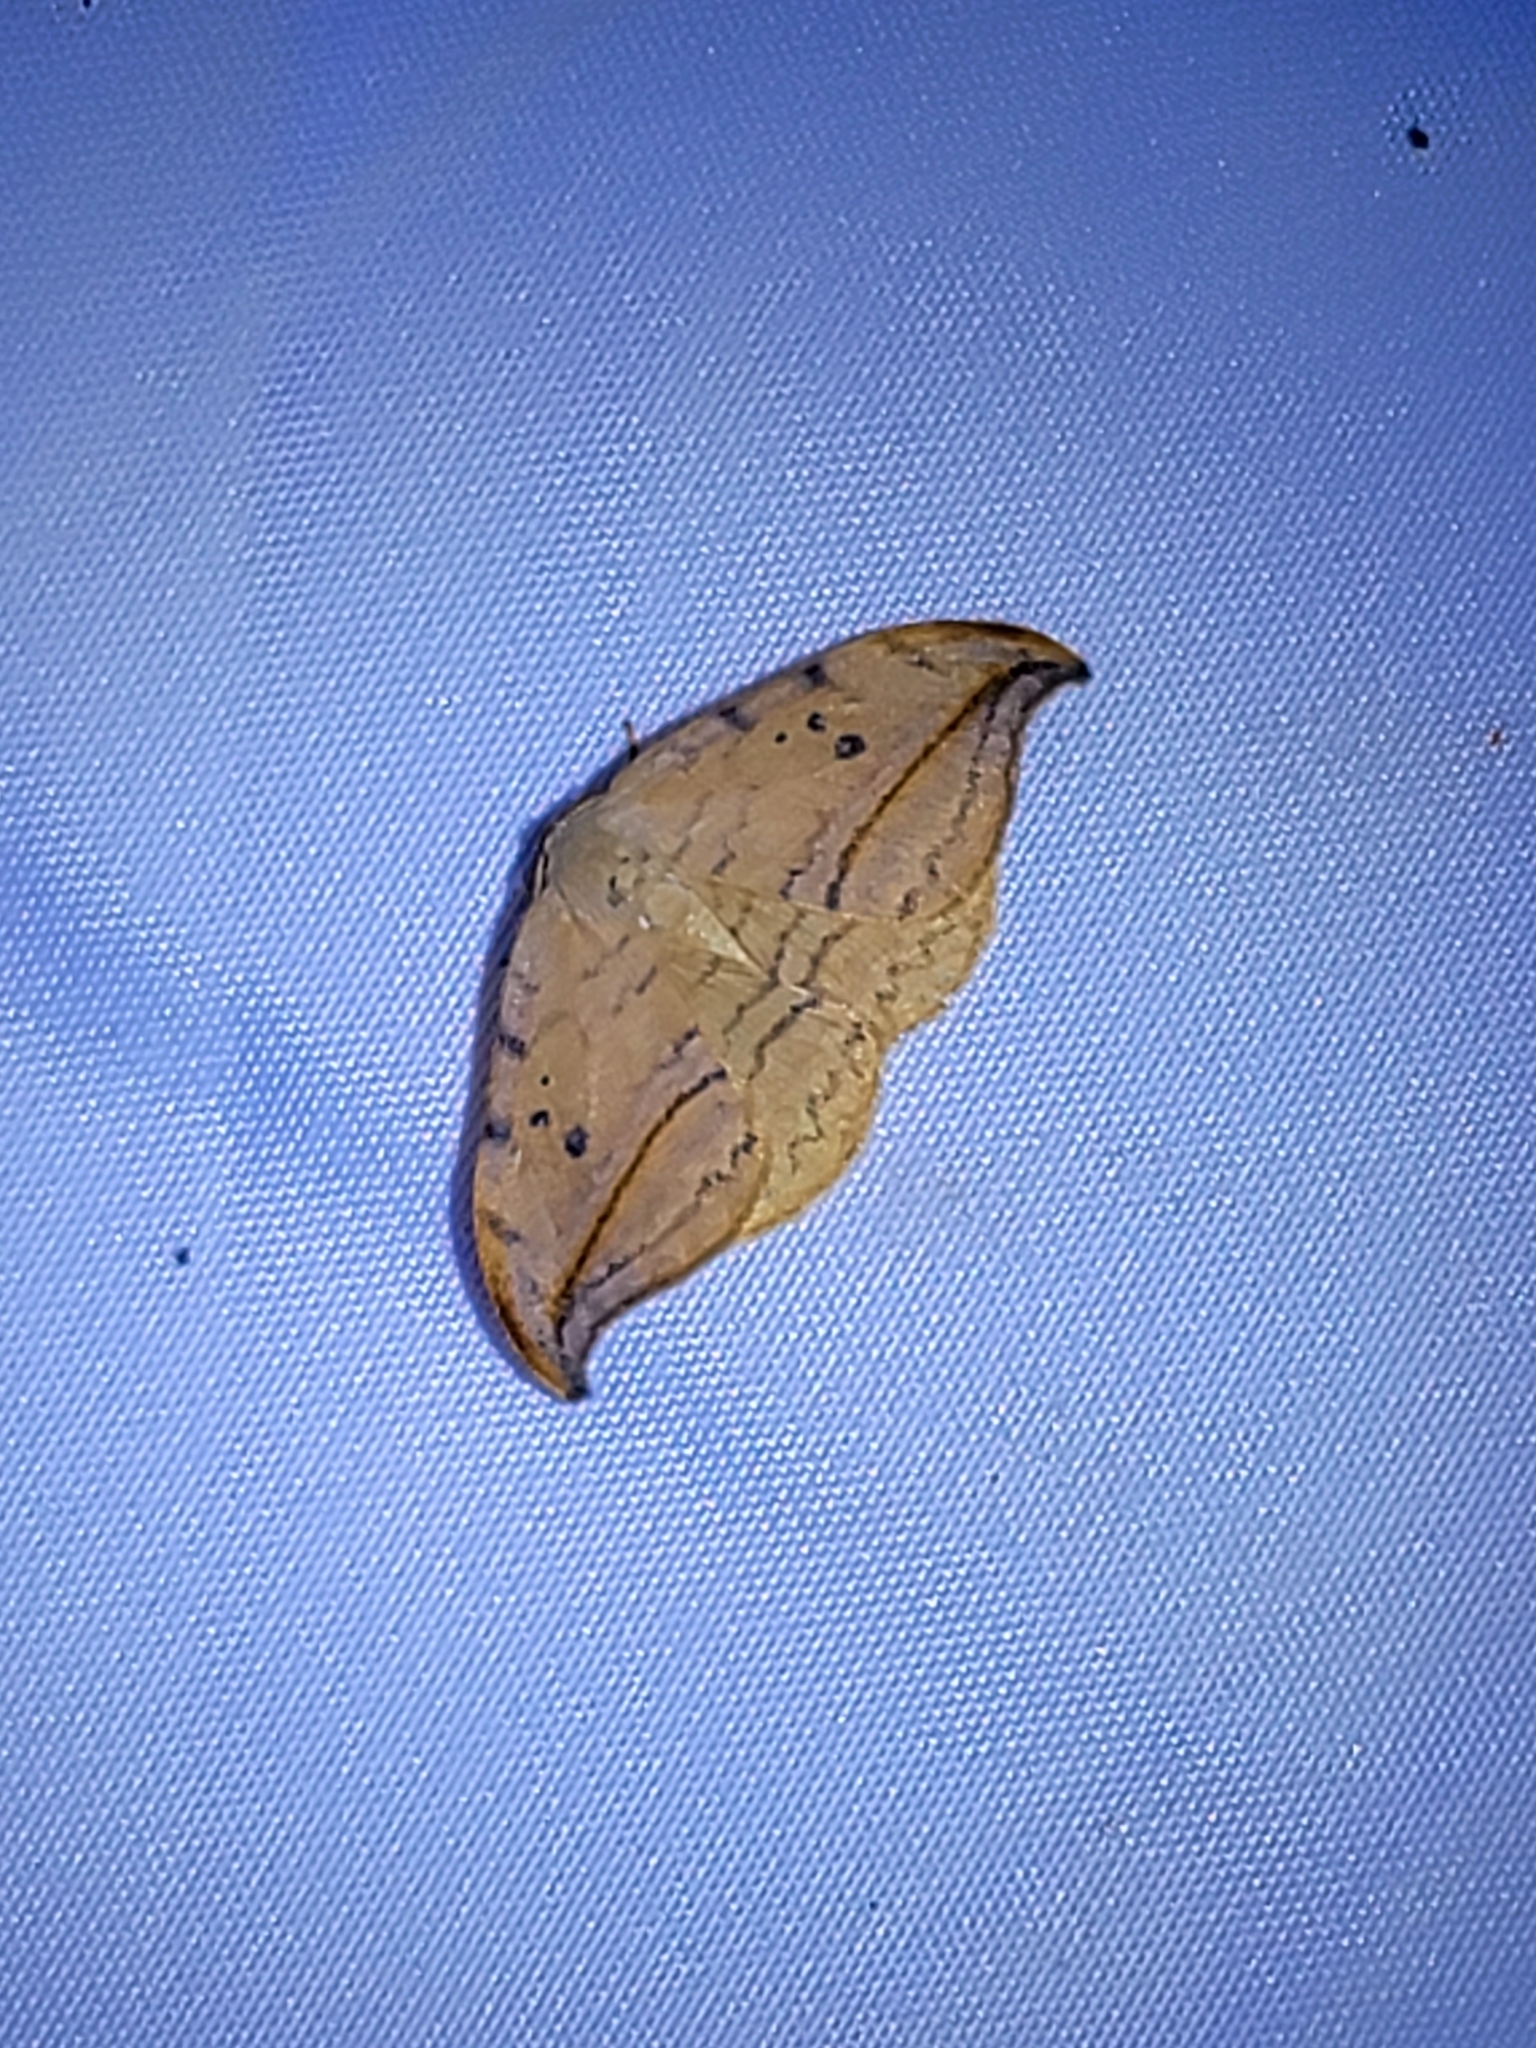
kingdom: Animalia
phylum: Arthropoda
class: Insecta
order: Lepidoptera
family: Drepanidae
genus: Drepana
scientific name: Drepana arcuata
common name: Arched hooktip moth
